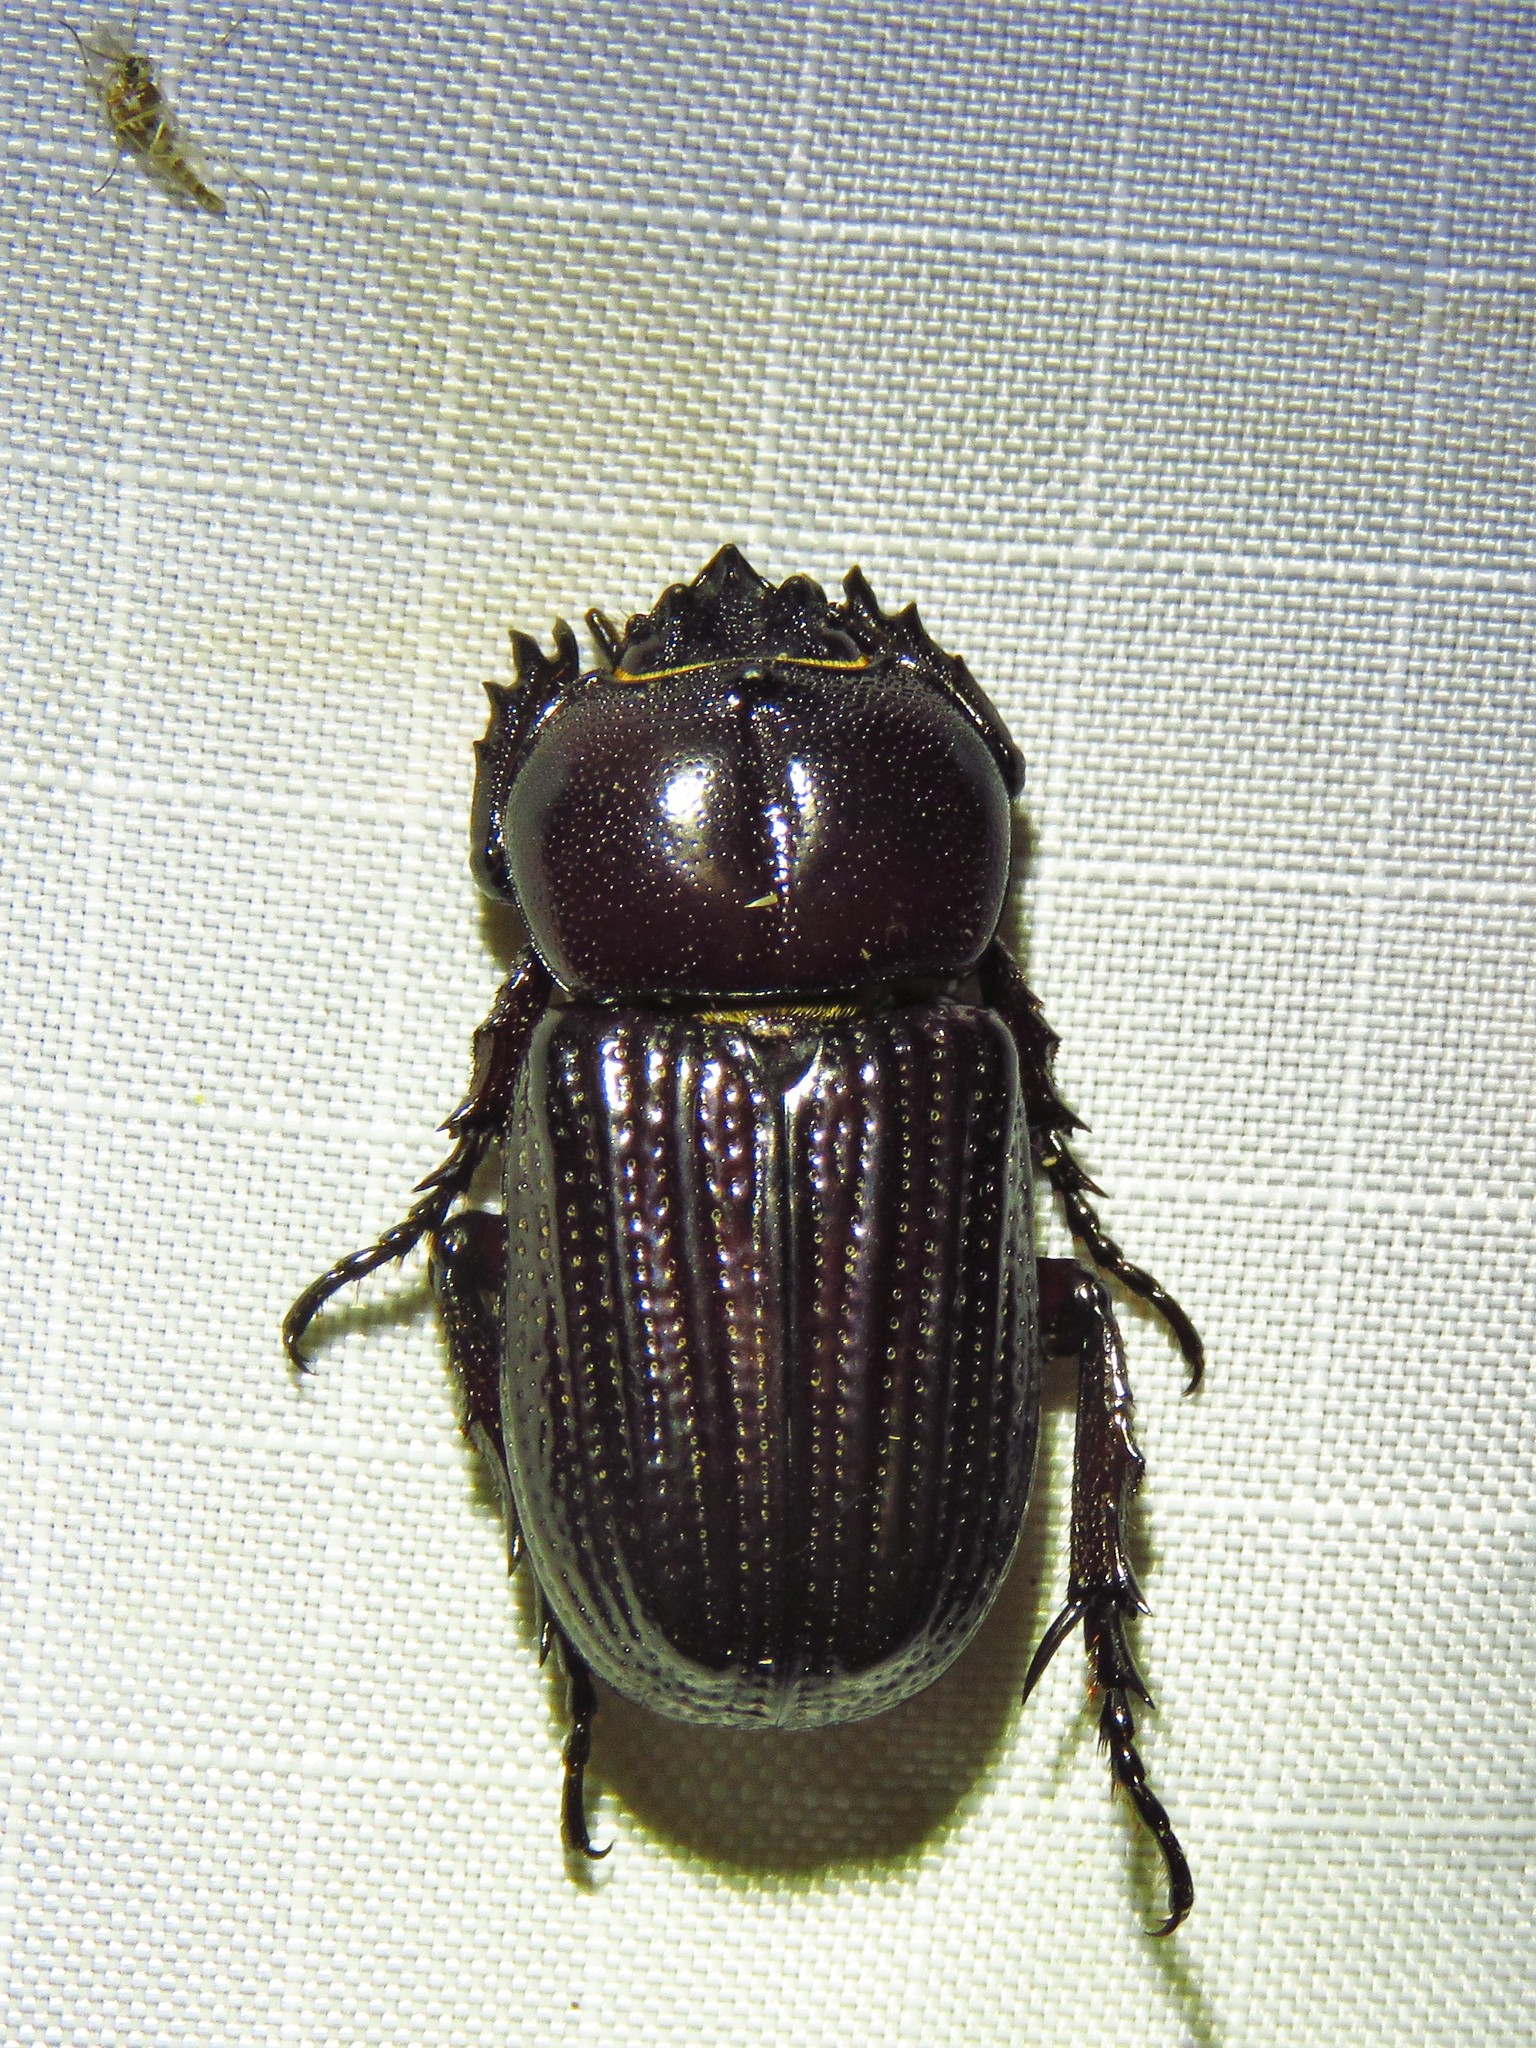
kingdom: Animalia
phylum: Arthropoda
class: Insecta
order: Coleoptera
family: Scarabaeidae
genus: Phileurus
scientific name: Phileurus valgus
